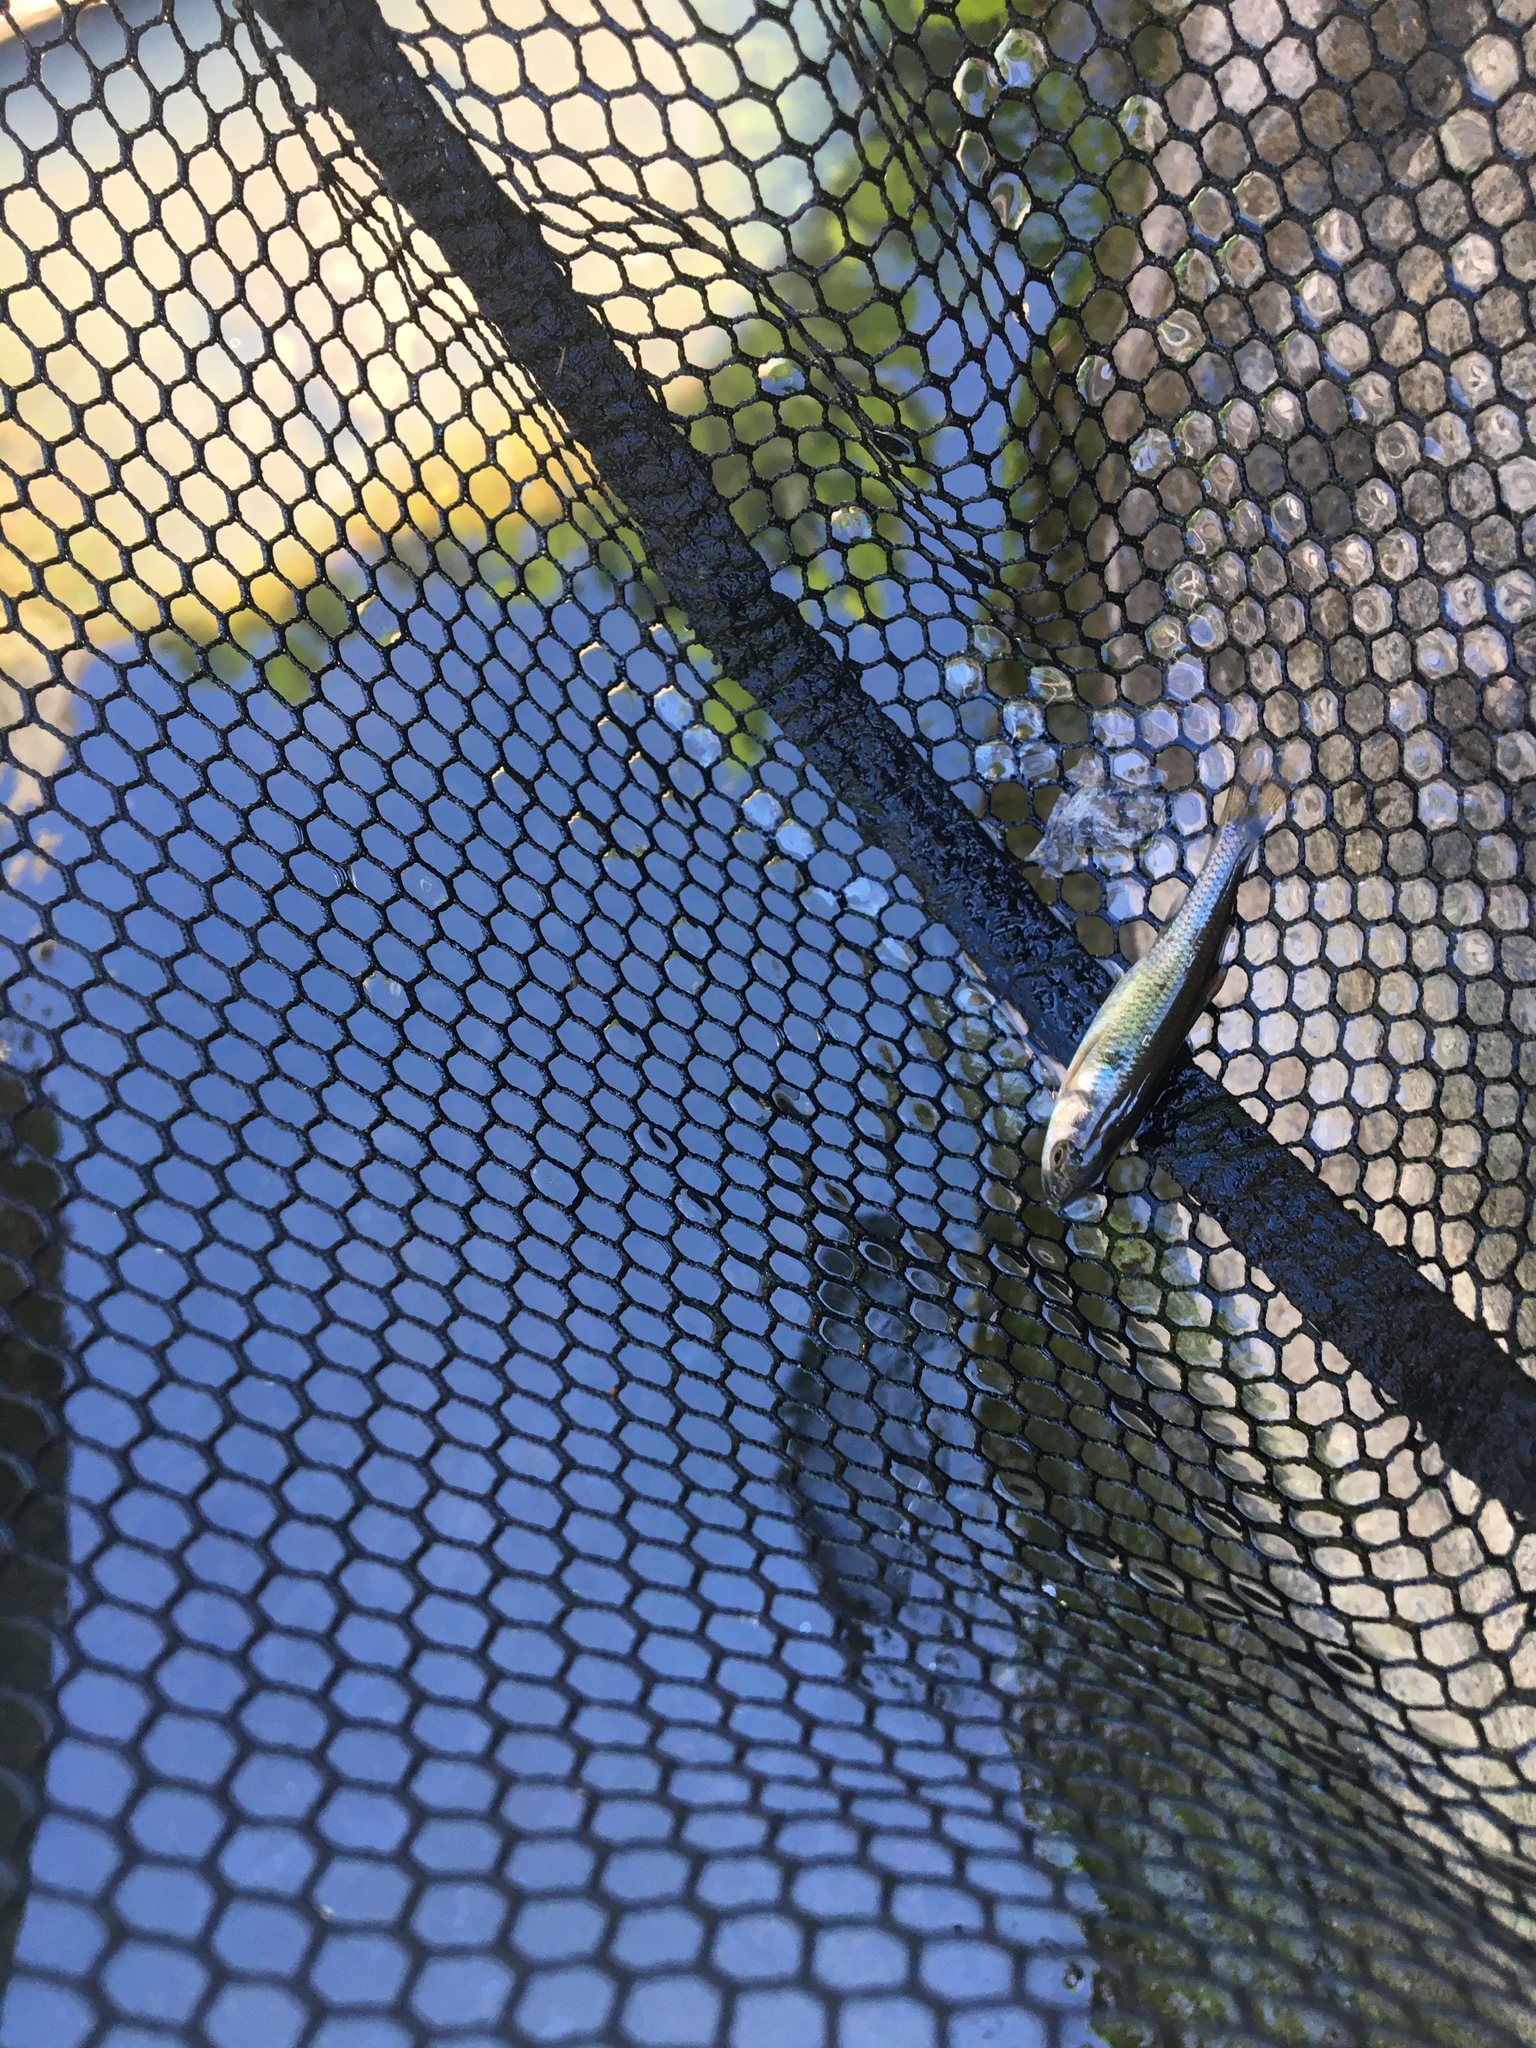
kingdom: Animalia
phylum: Chordata
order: Cypriniformes
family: Cyprinidae
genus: Luxilus
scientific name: Luxilus cornutus
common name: Common shiner
